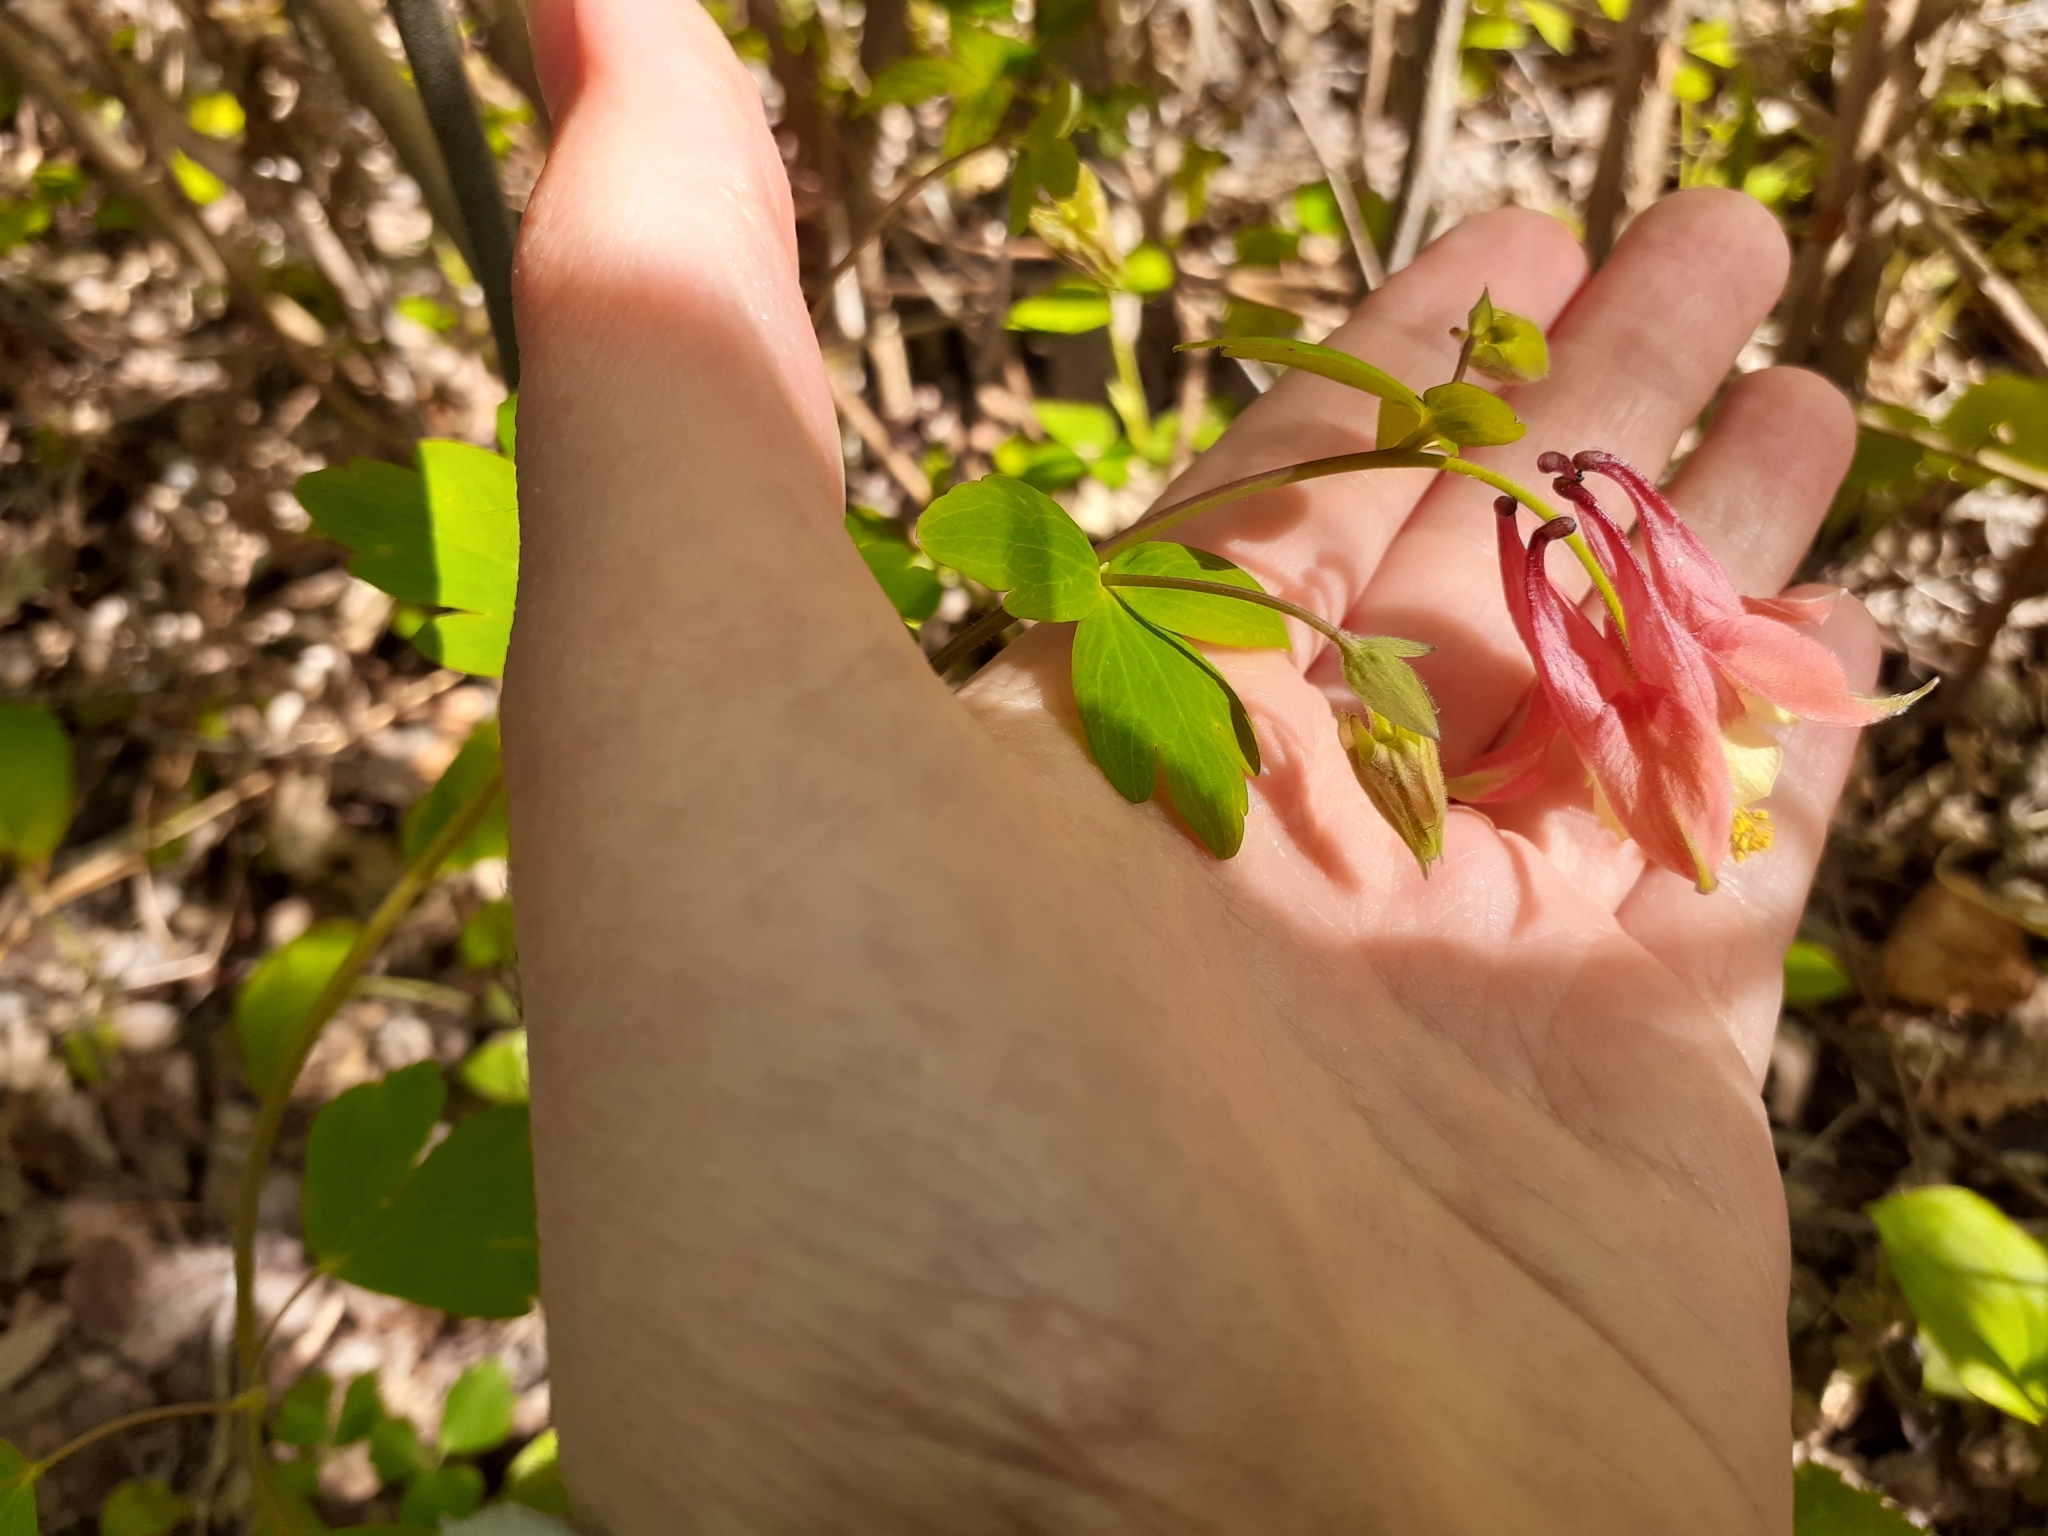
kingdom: Plantae
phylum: Tracheophyta
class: Magnoliopsida
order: Ranunculales
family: Ranunculaceae
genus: Aquilegia
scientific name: Aquilegia canadensis
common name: American columbine
